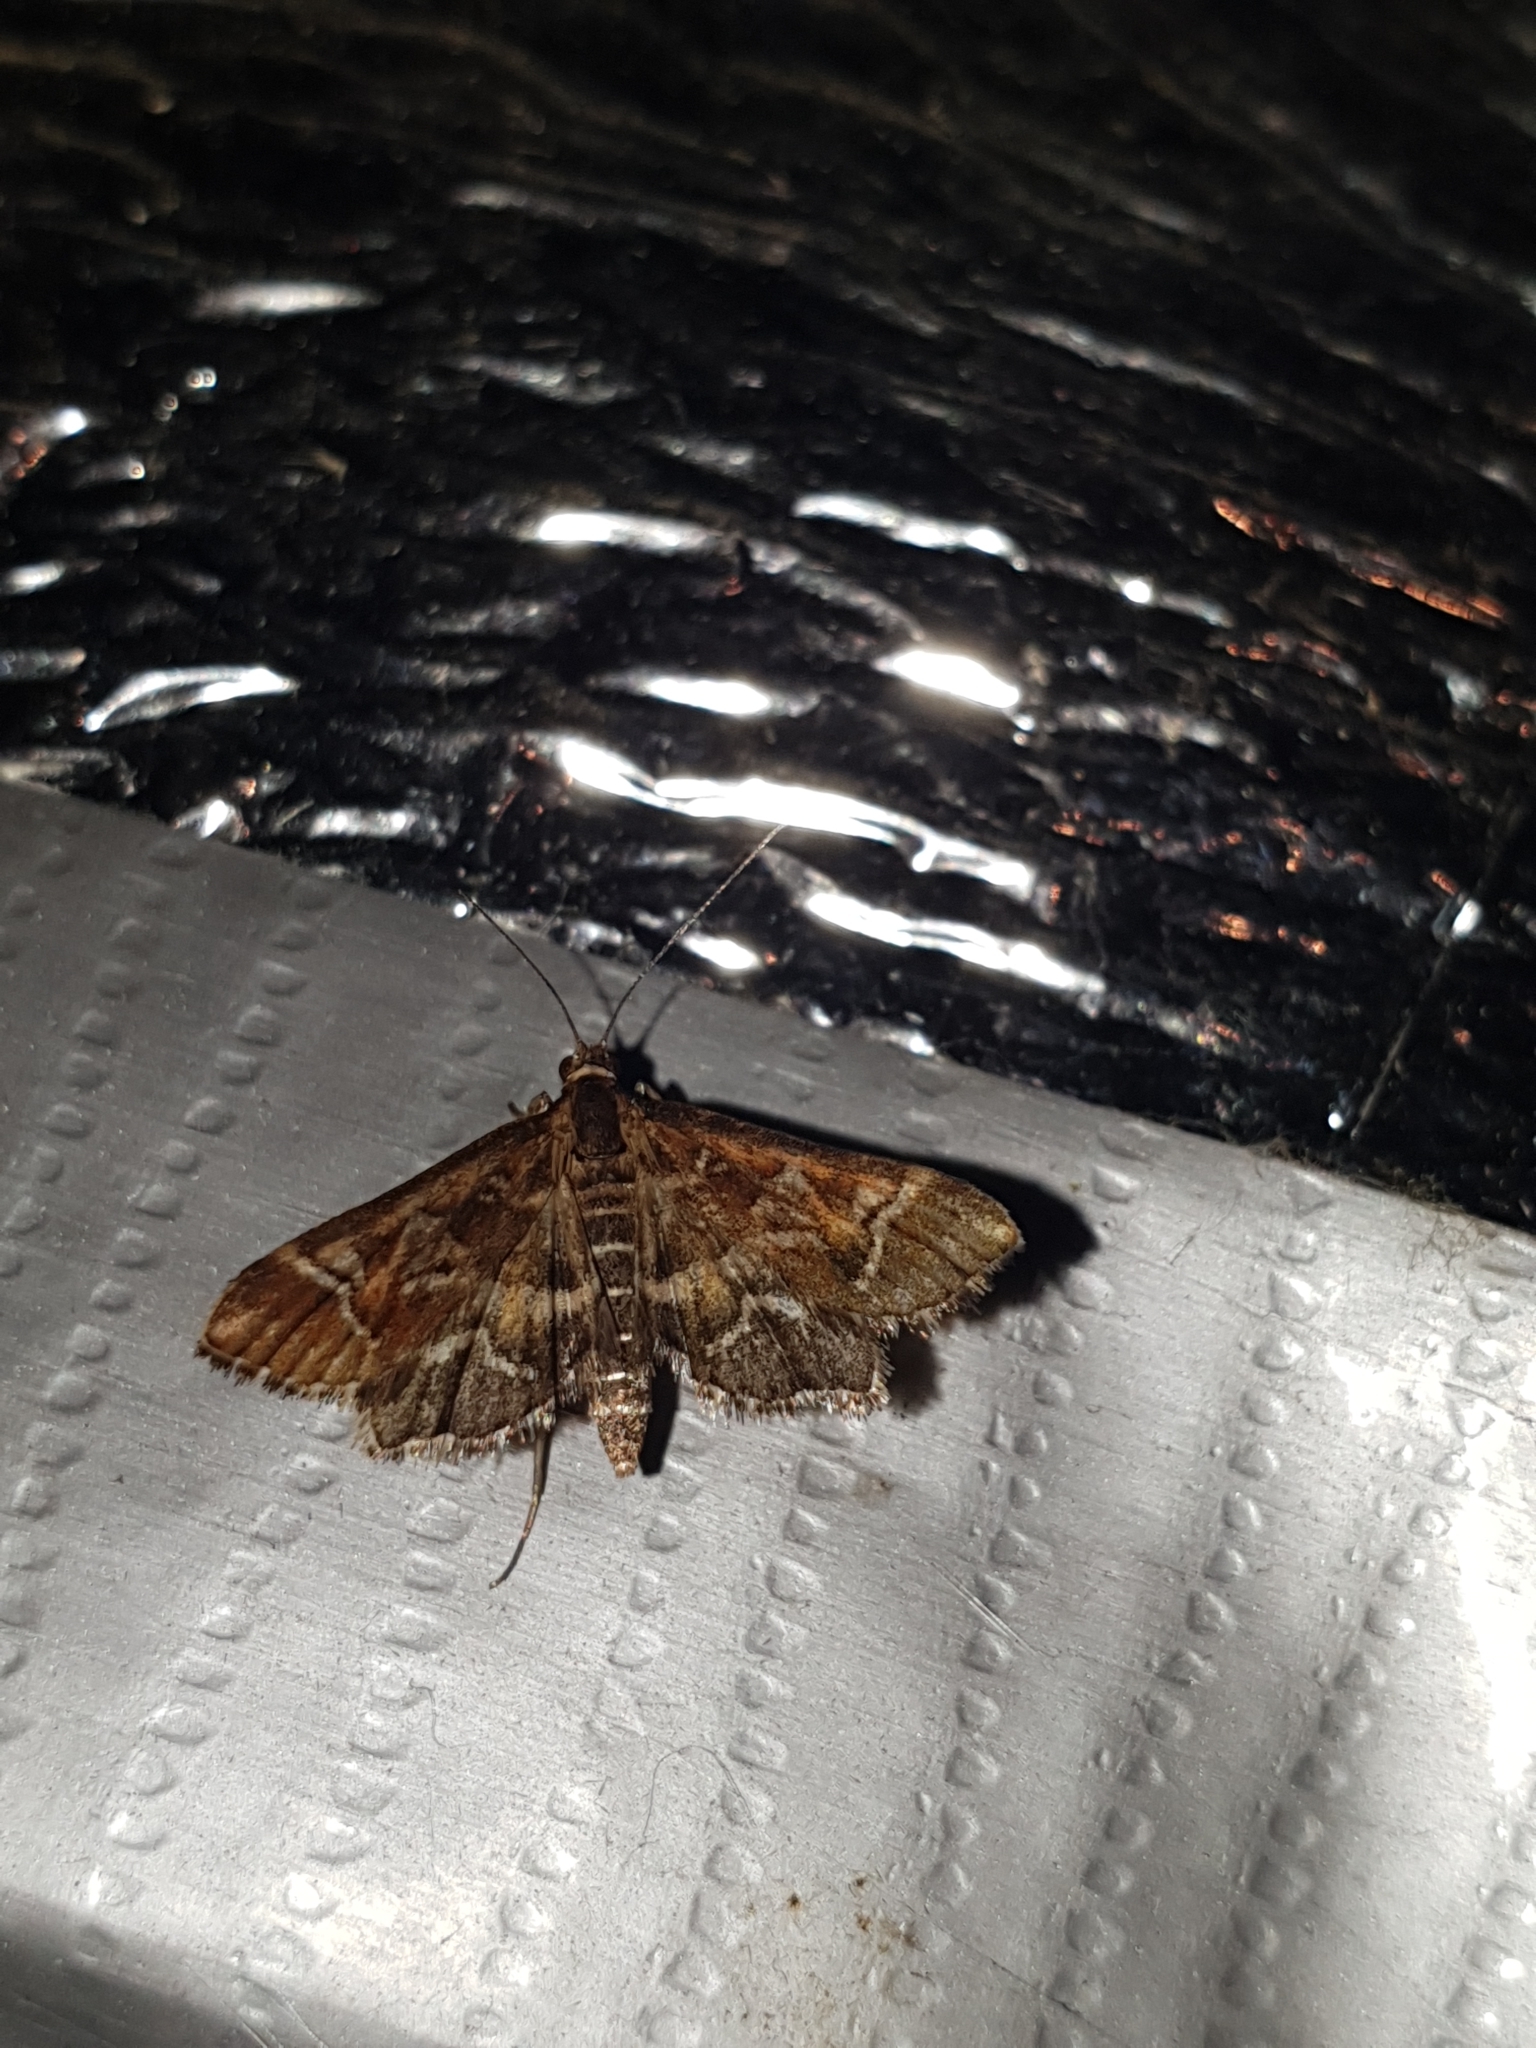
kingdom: Animalia
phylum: Arthropoda
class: Insecta
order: Lepidoptera
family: Crambidae
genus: Diasemia
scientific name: Diasemia reticularis
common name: Lettered china-mark
